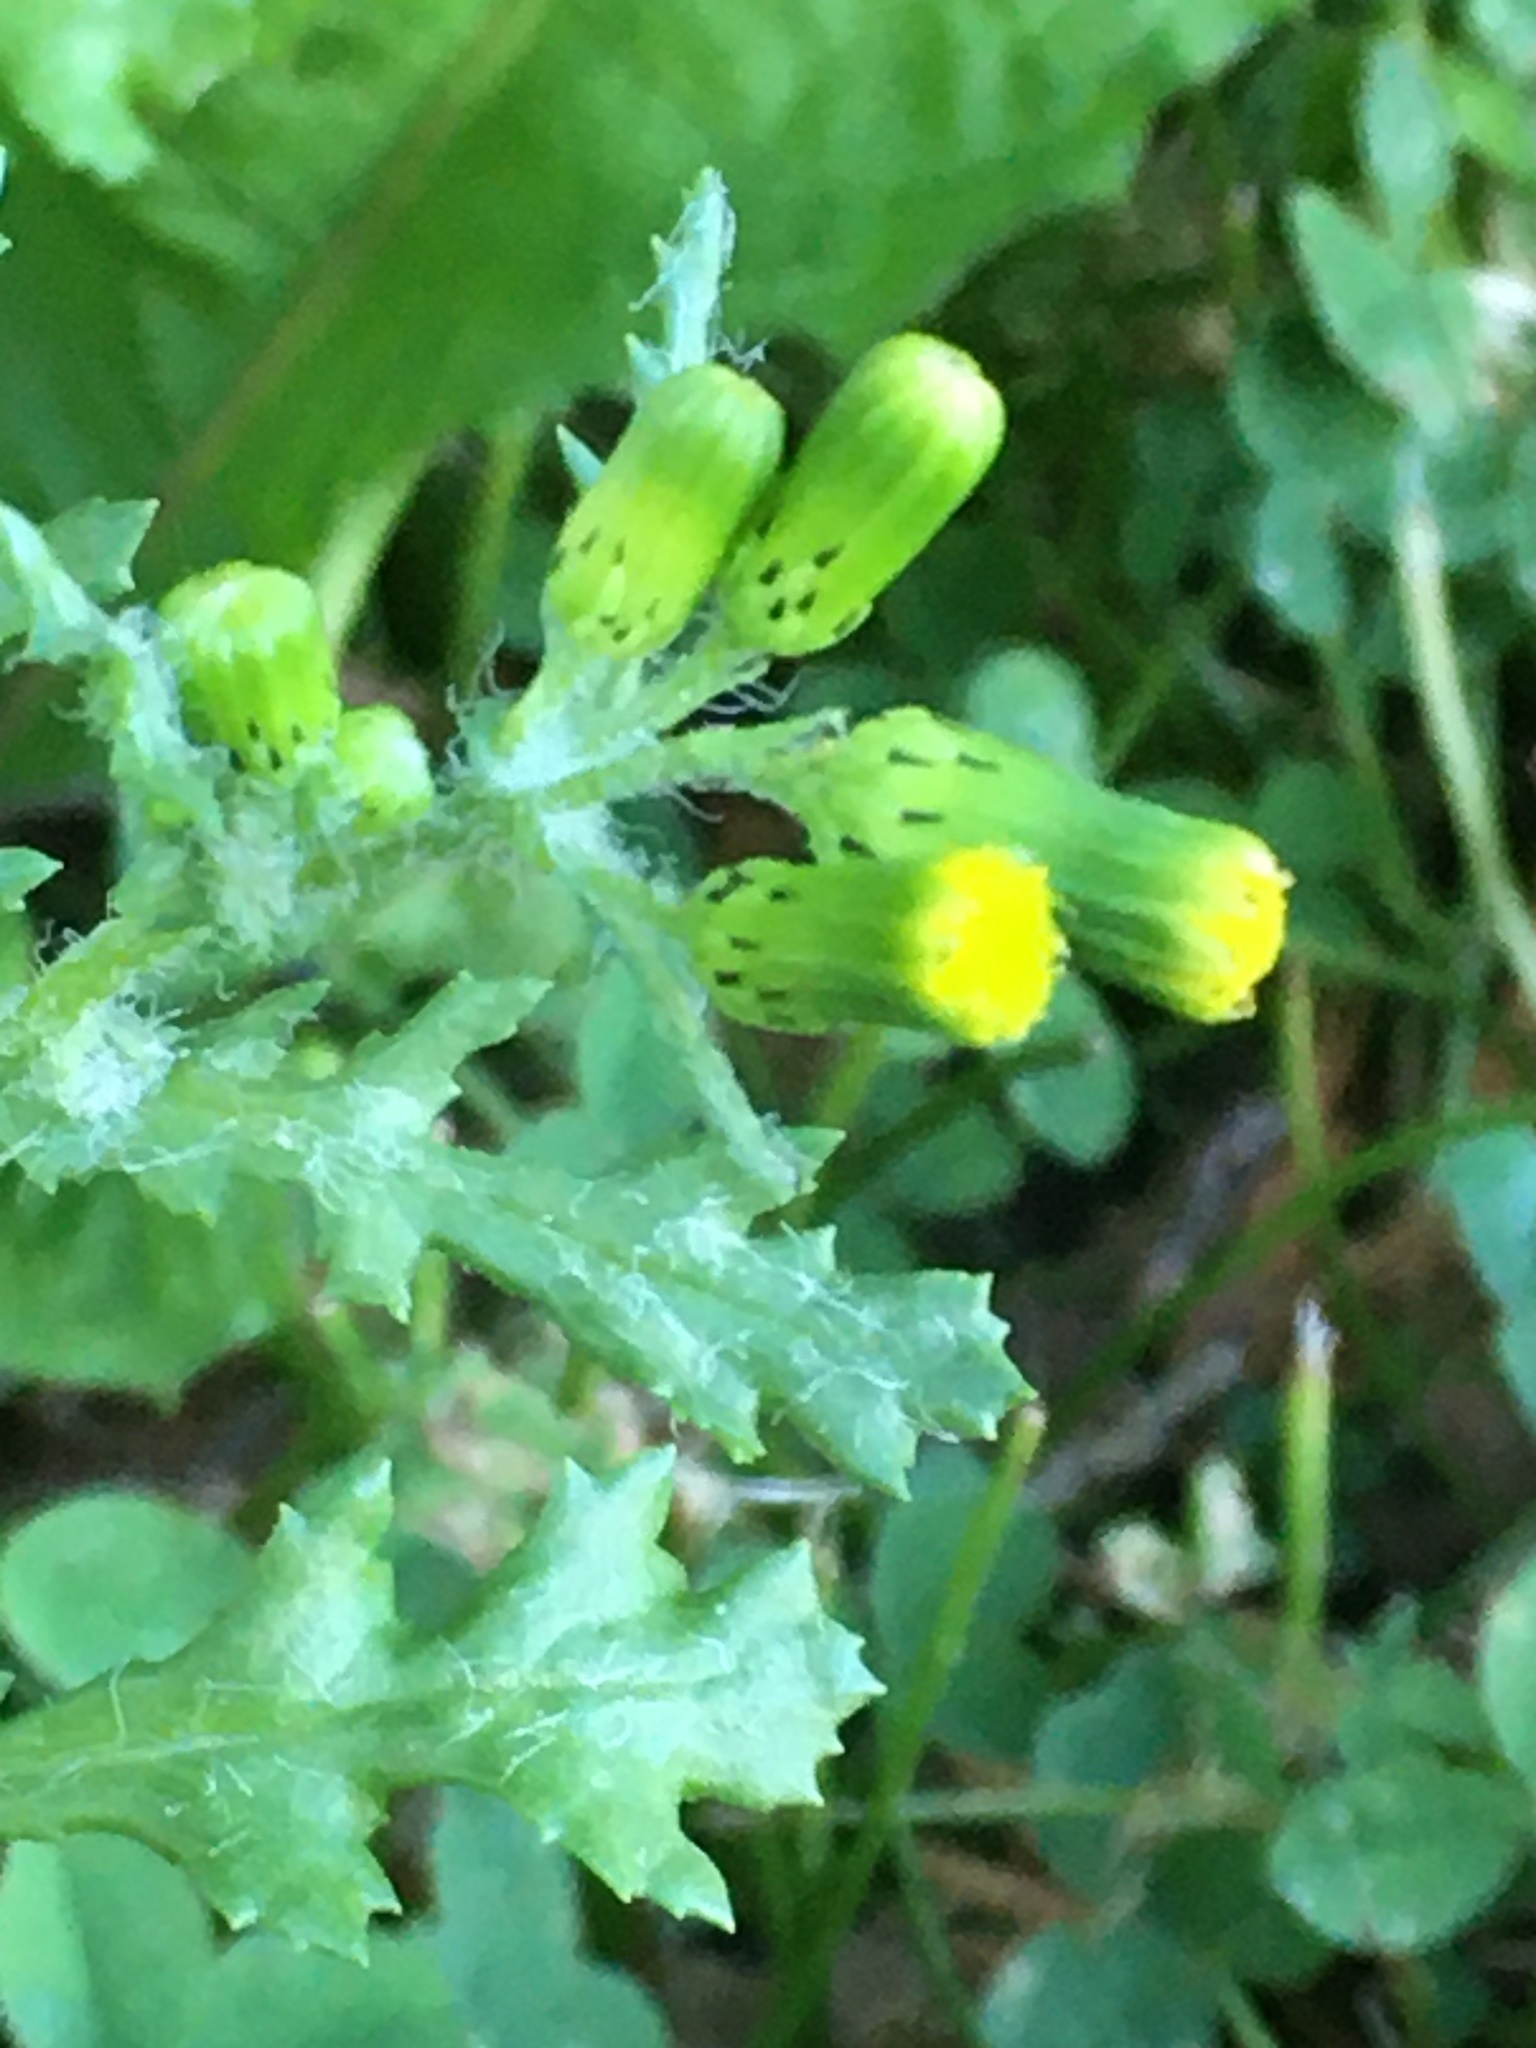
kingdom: Plantae
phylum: Tracheophyta
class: Magnoliopsida
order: Asterales
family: Asteraceae
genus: Senecio
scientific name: Senecio vulgaris
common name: Old-man-in-the-spring
